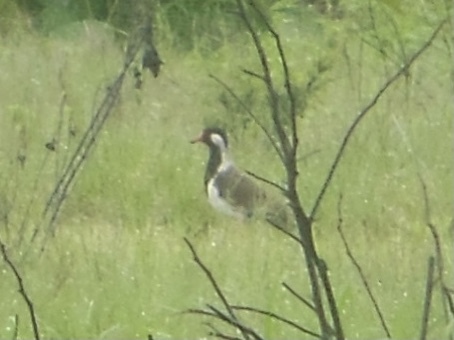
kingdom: Animalia
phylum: Chordata
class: Aves
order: Charadriiformes
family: Charadriidae
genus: Vanellus
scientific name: Vanellus indicus
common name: Red-wattled lapwing
